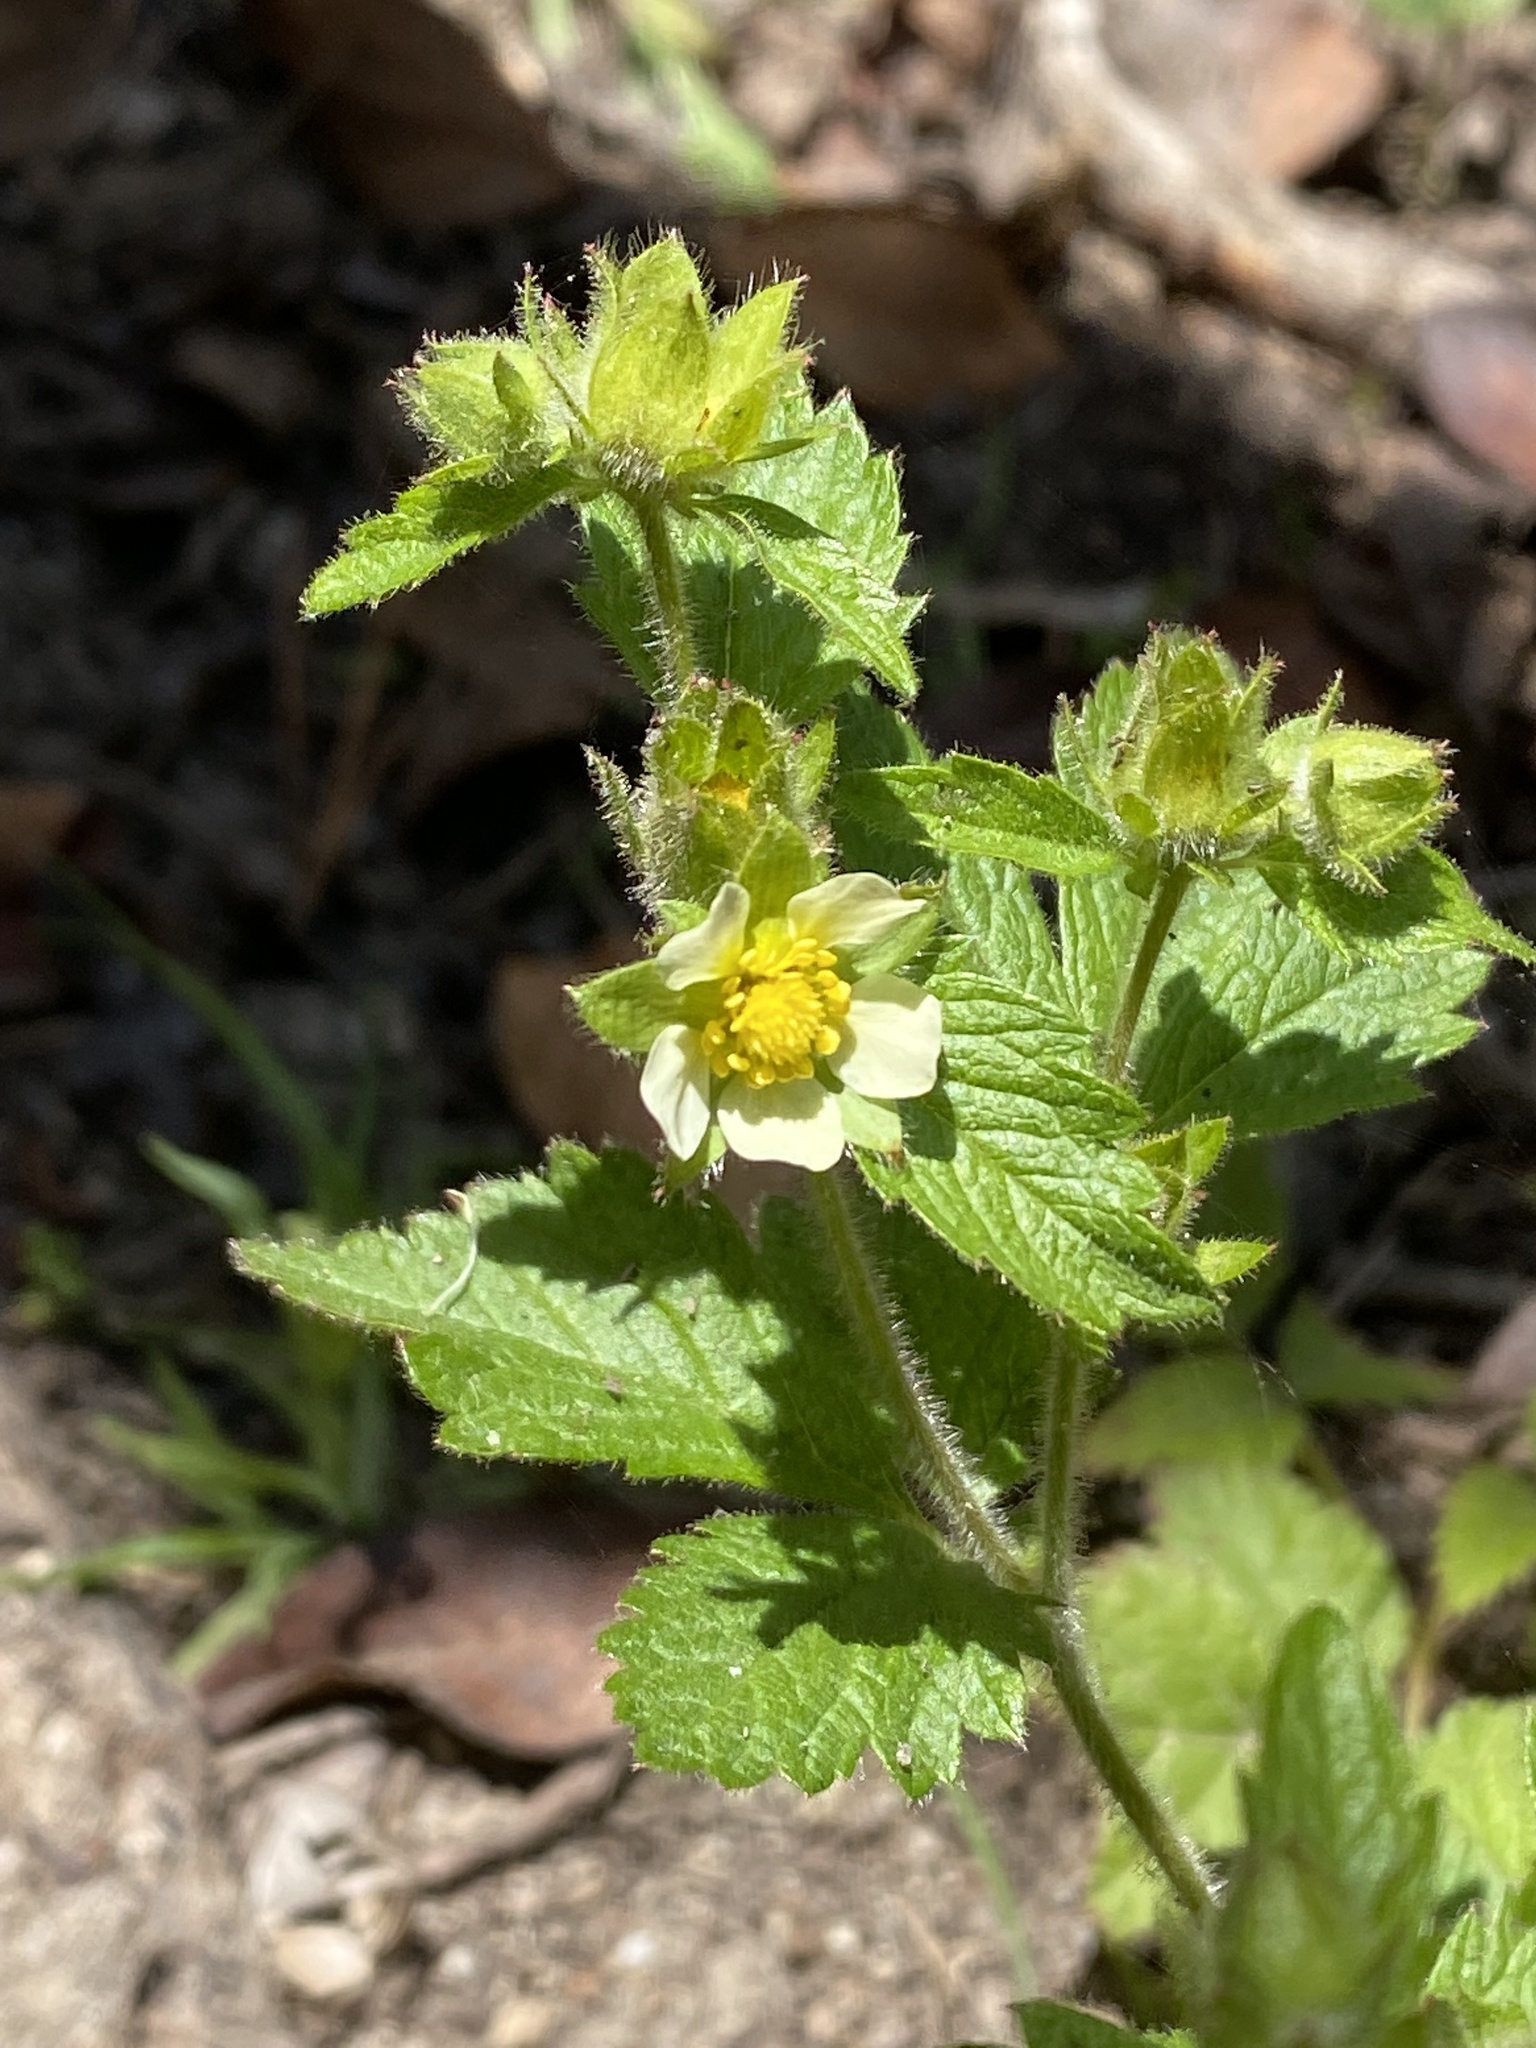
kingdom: Plantae
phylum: Tracheophyta
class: Magnoliopsida
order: Rosales
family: Rosaceae
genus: Drymocallis
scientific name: Drymocallis glandulosa
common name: Sticky cinquefoil
